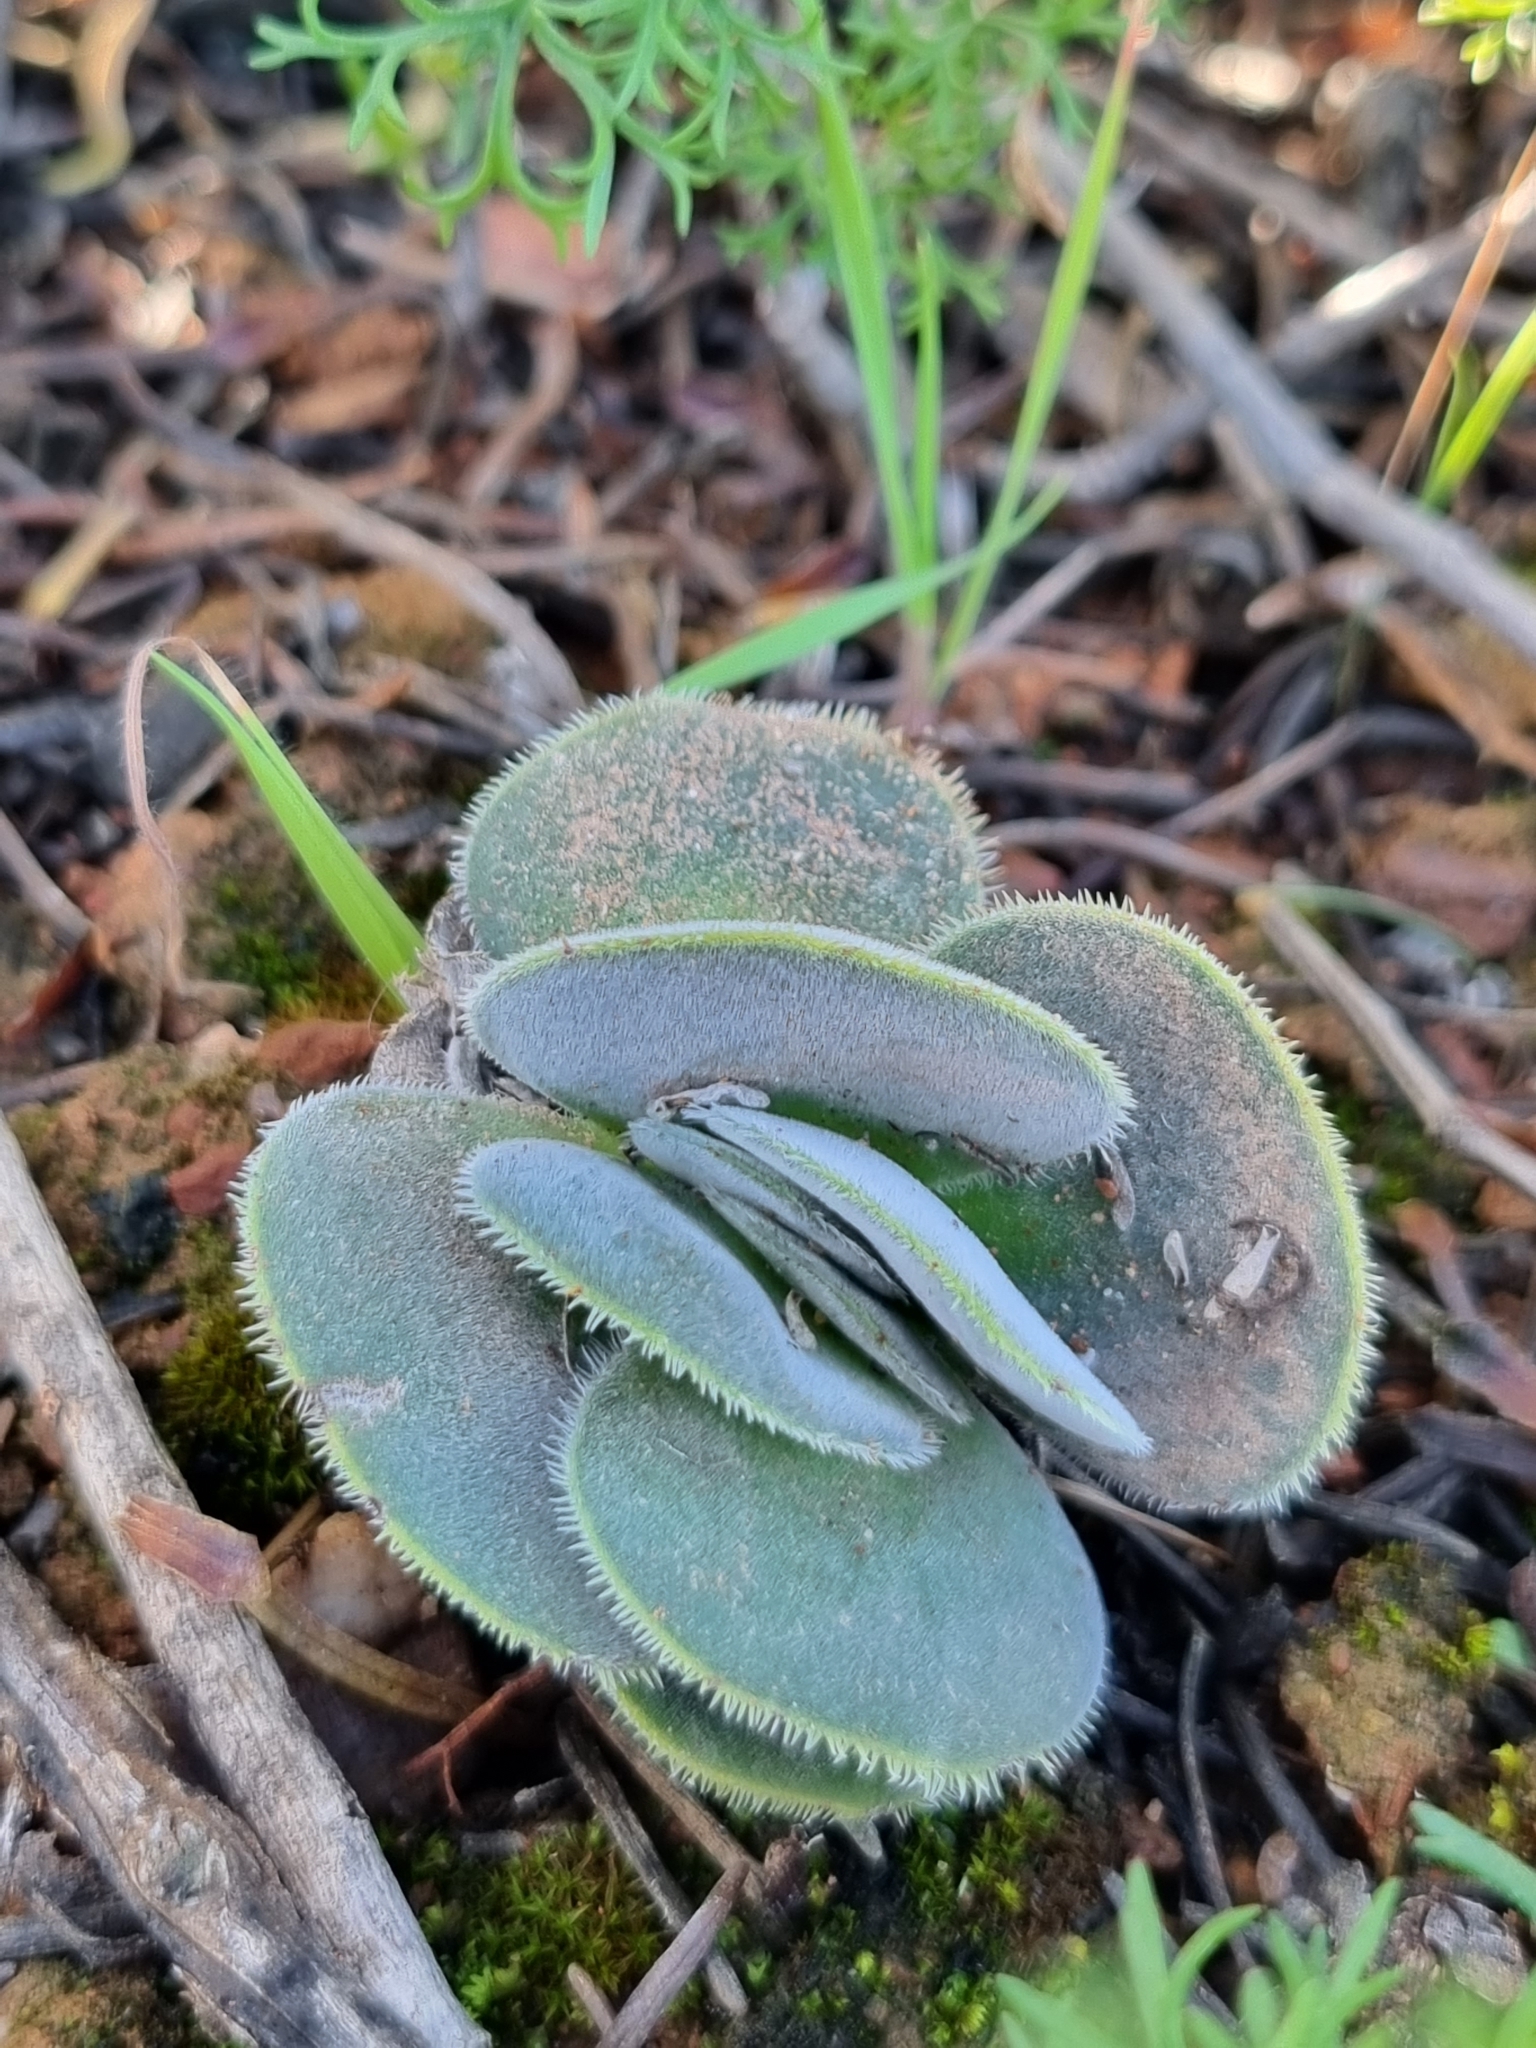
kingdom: Plantae
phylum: Tracheophyta
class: Magnoliopsida
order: Saxifragales
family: Crassulaceae
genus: Crassula
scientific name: Crassula tomentosa
